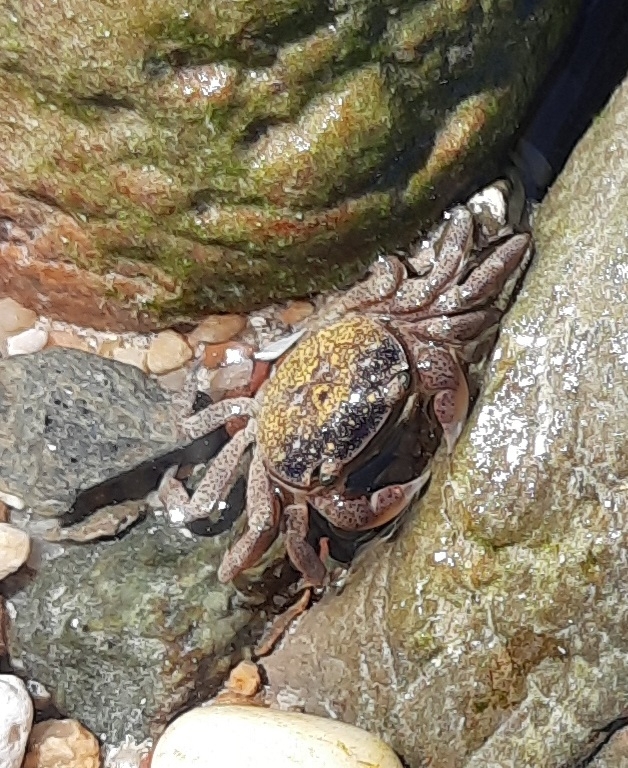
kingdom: Animalia
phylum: Arthropoda
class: Malacostraca
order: Decapoda
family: Varunidae
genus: Cyclograpsus
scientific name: Cyclograpsus punctatus
